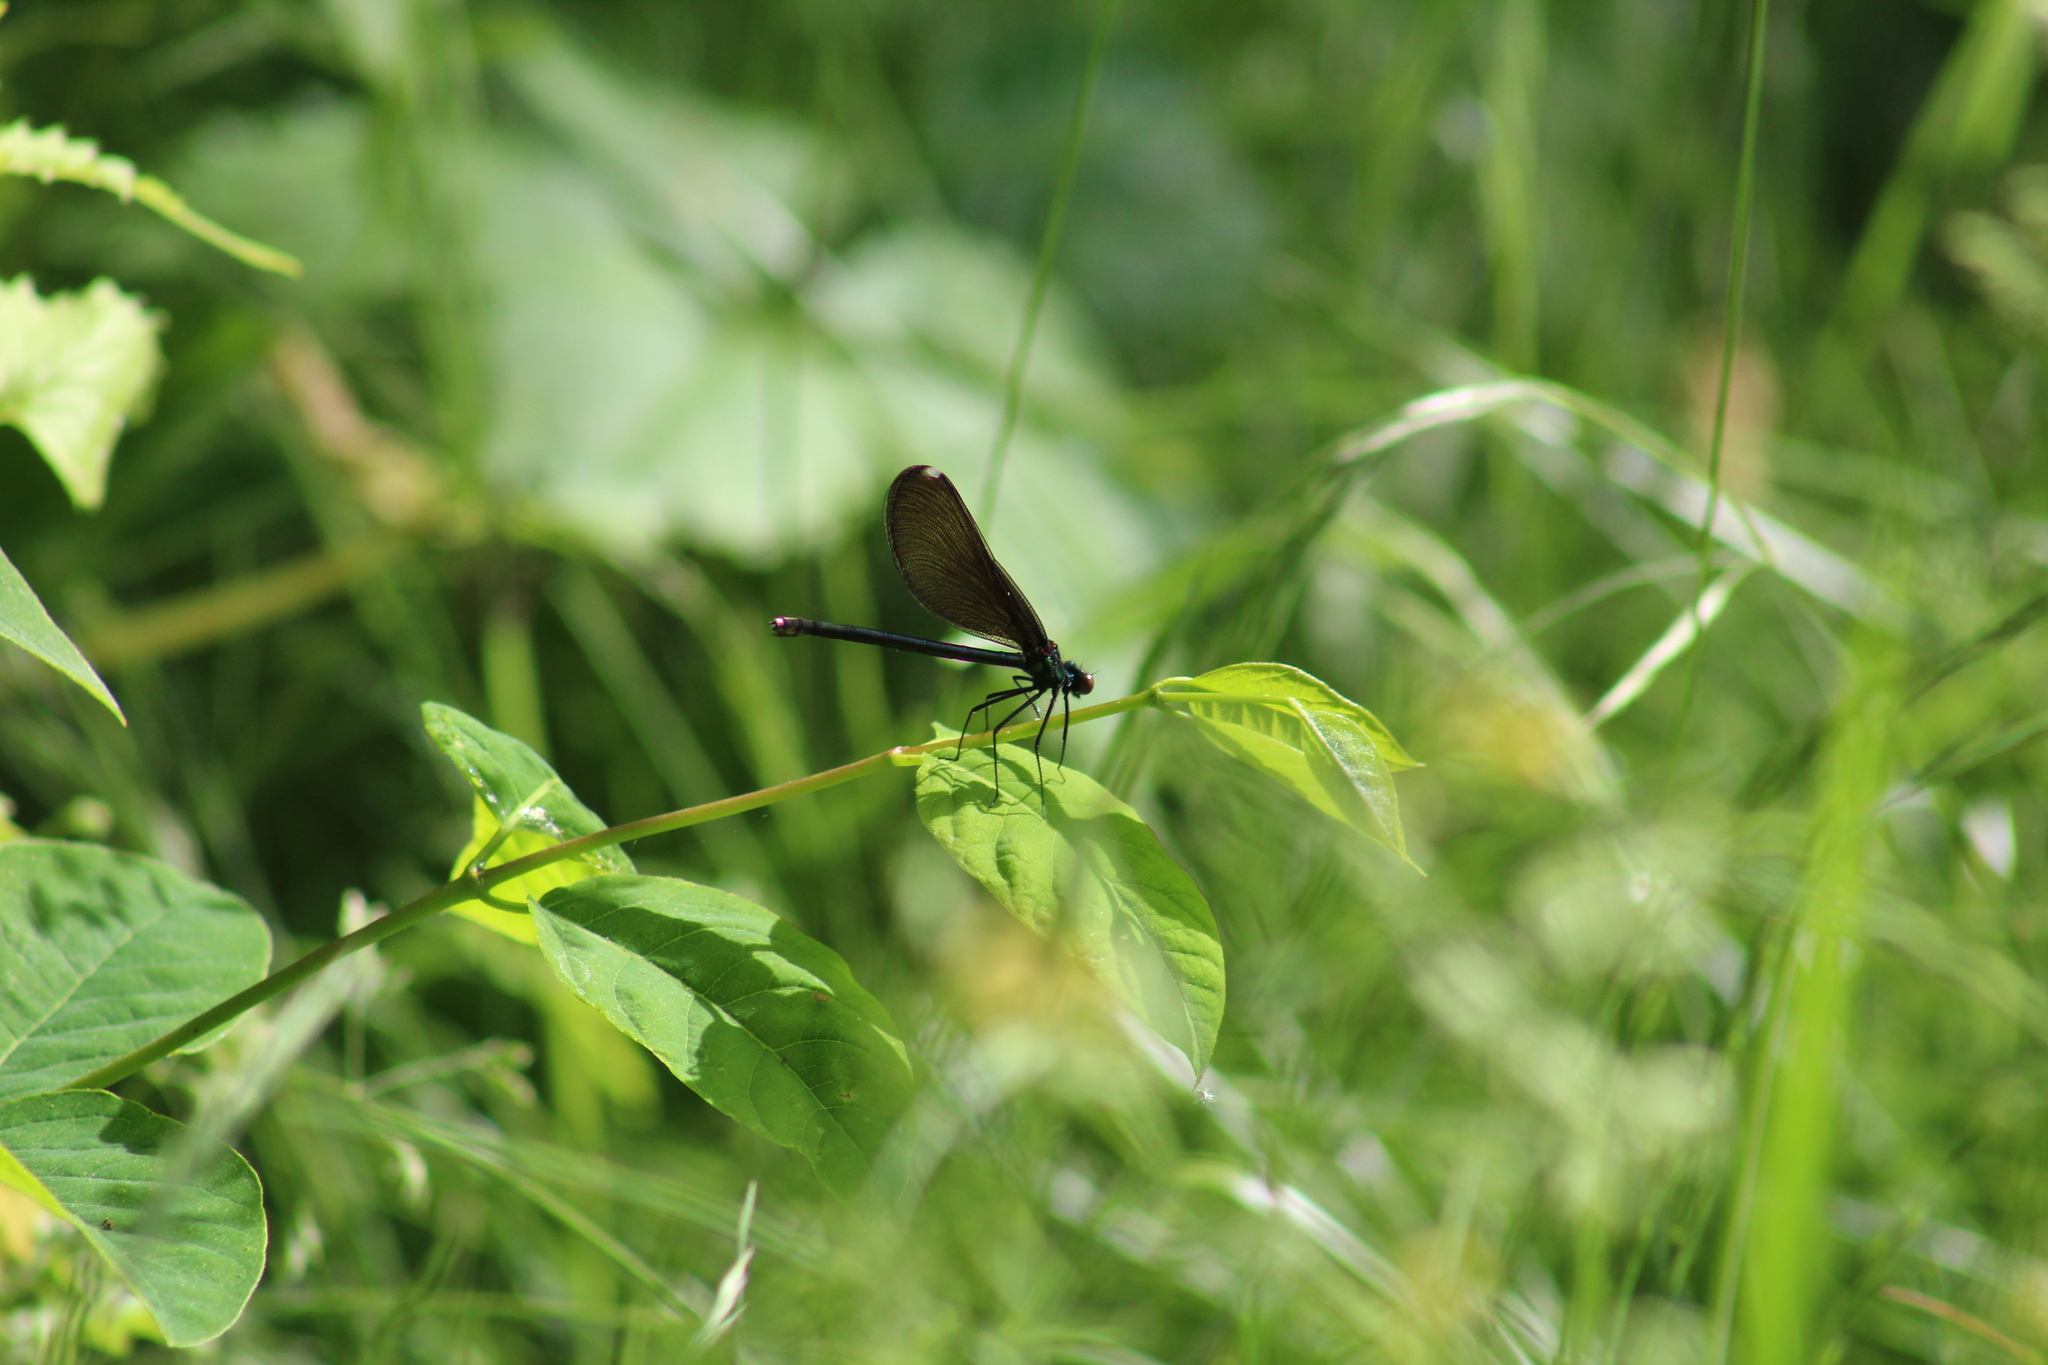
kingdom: Animalia
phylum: Arthropoda
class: Insecta
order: Odonata
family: Calopterygidae
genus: Calopteryx
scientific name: Calopteryx maculata
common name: Ebony jewelwing
